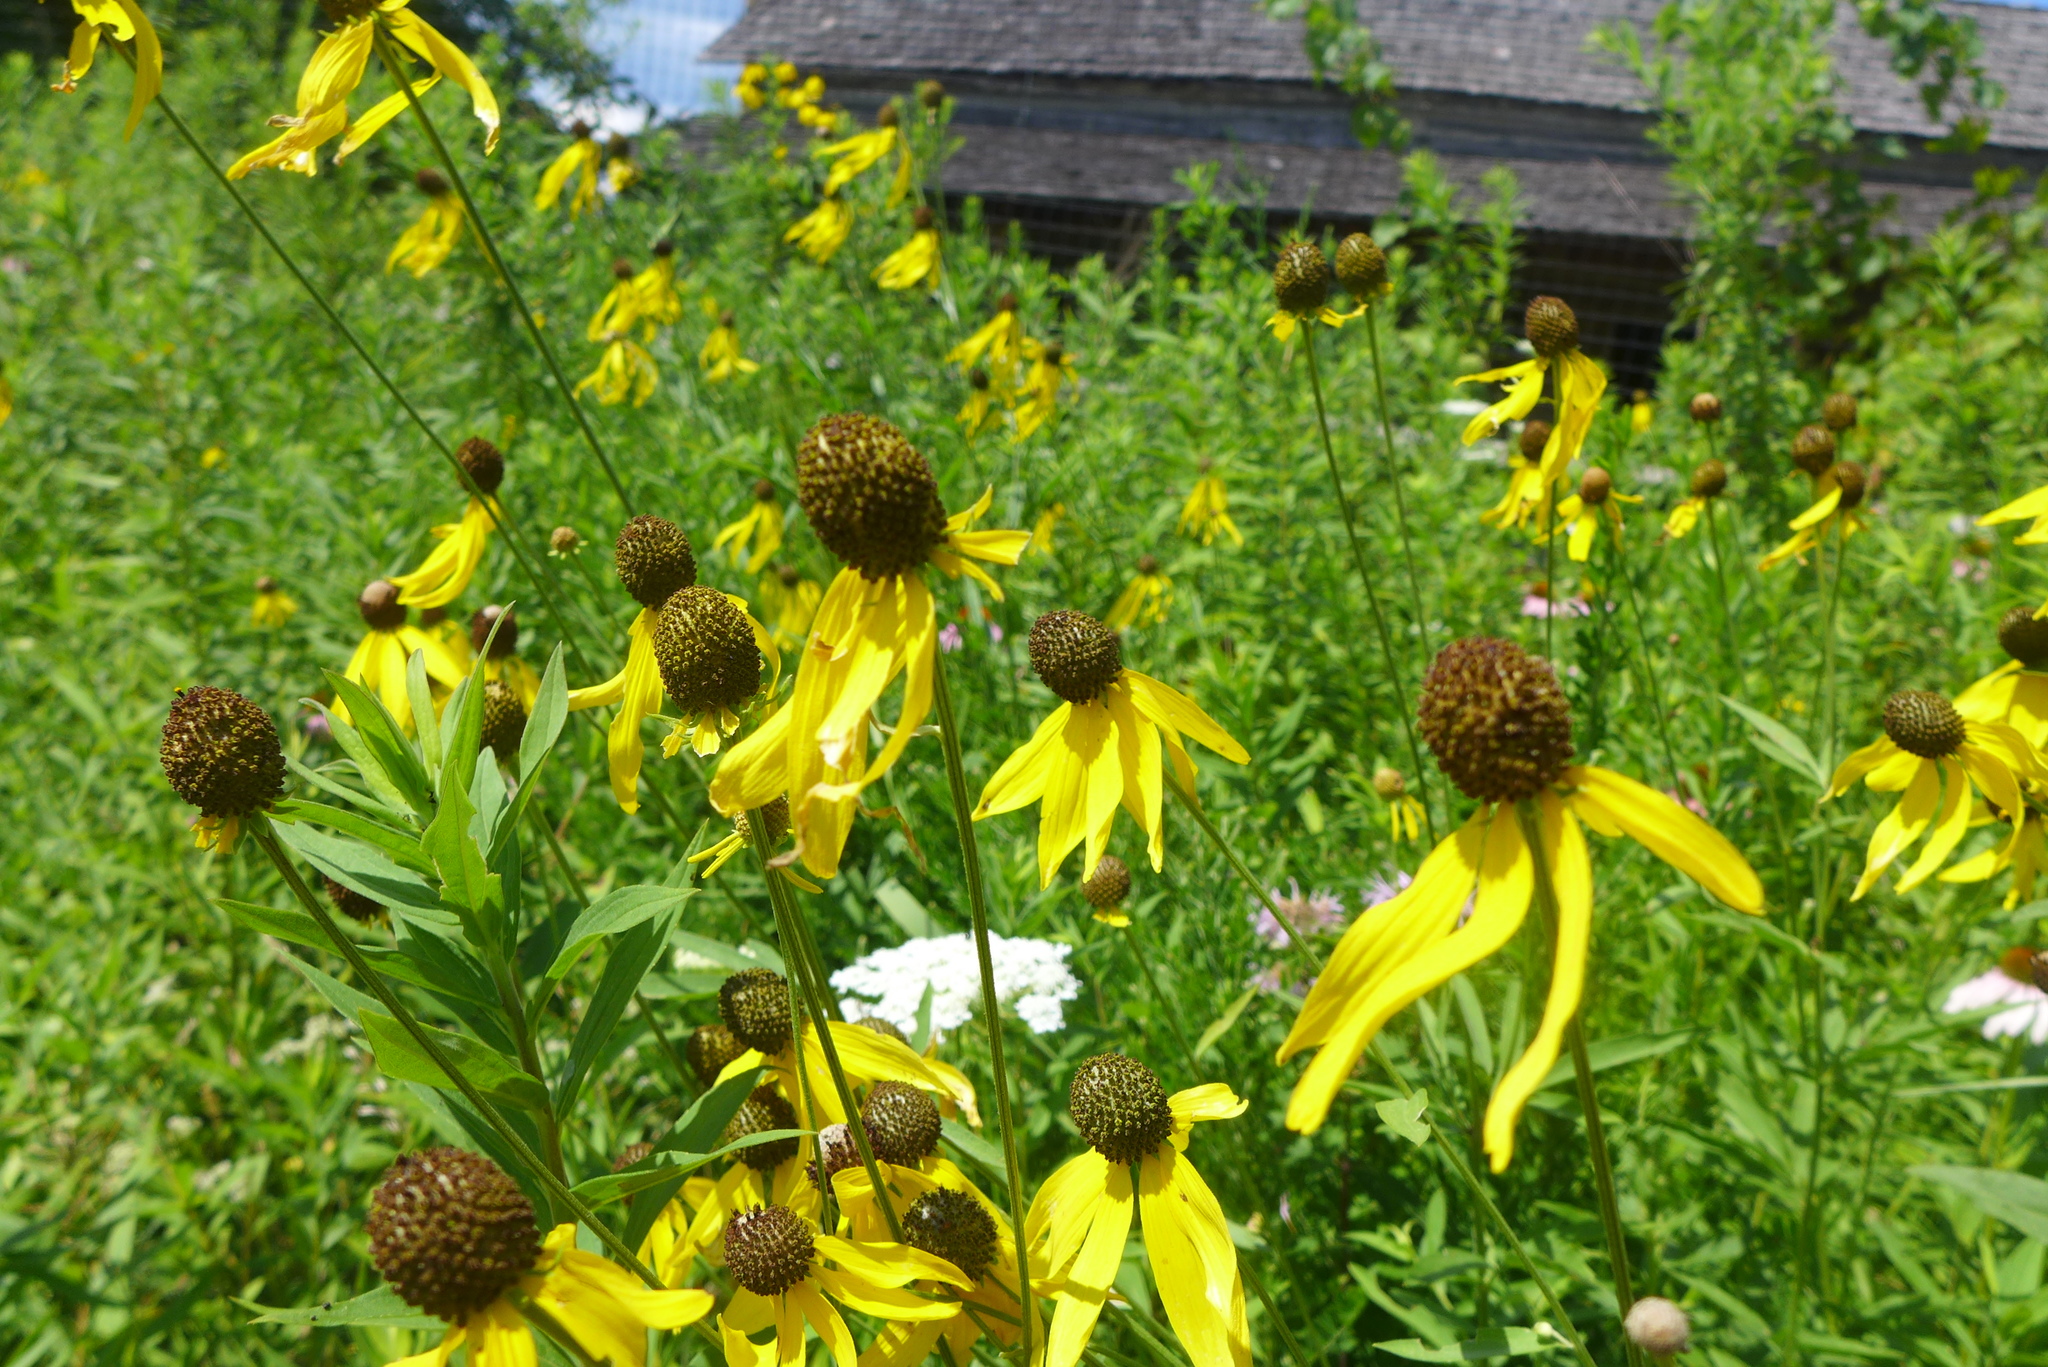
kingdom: Plantae
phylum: Tracheophyta
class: Magnoliopsida
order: Asterales
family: Asteraceae
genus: Ratibida
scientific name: Ratibida pinnata
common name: Drooping prairie-coneflower
